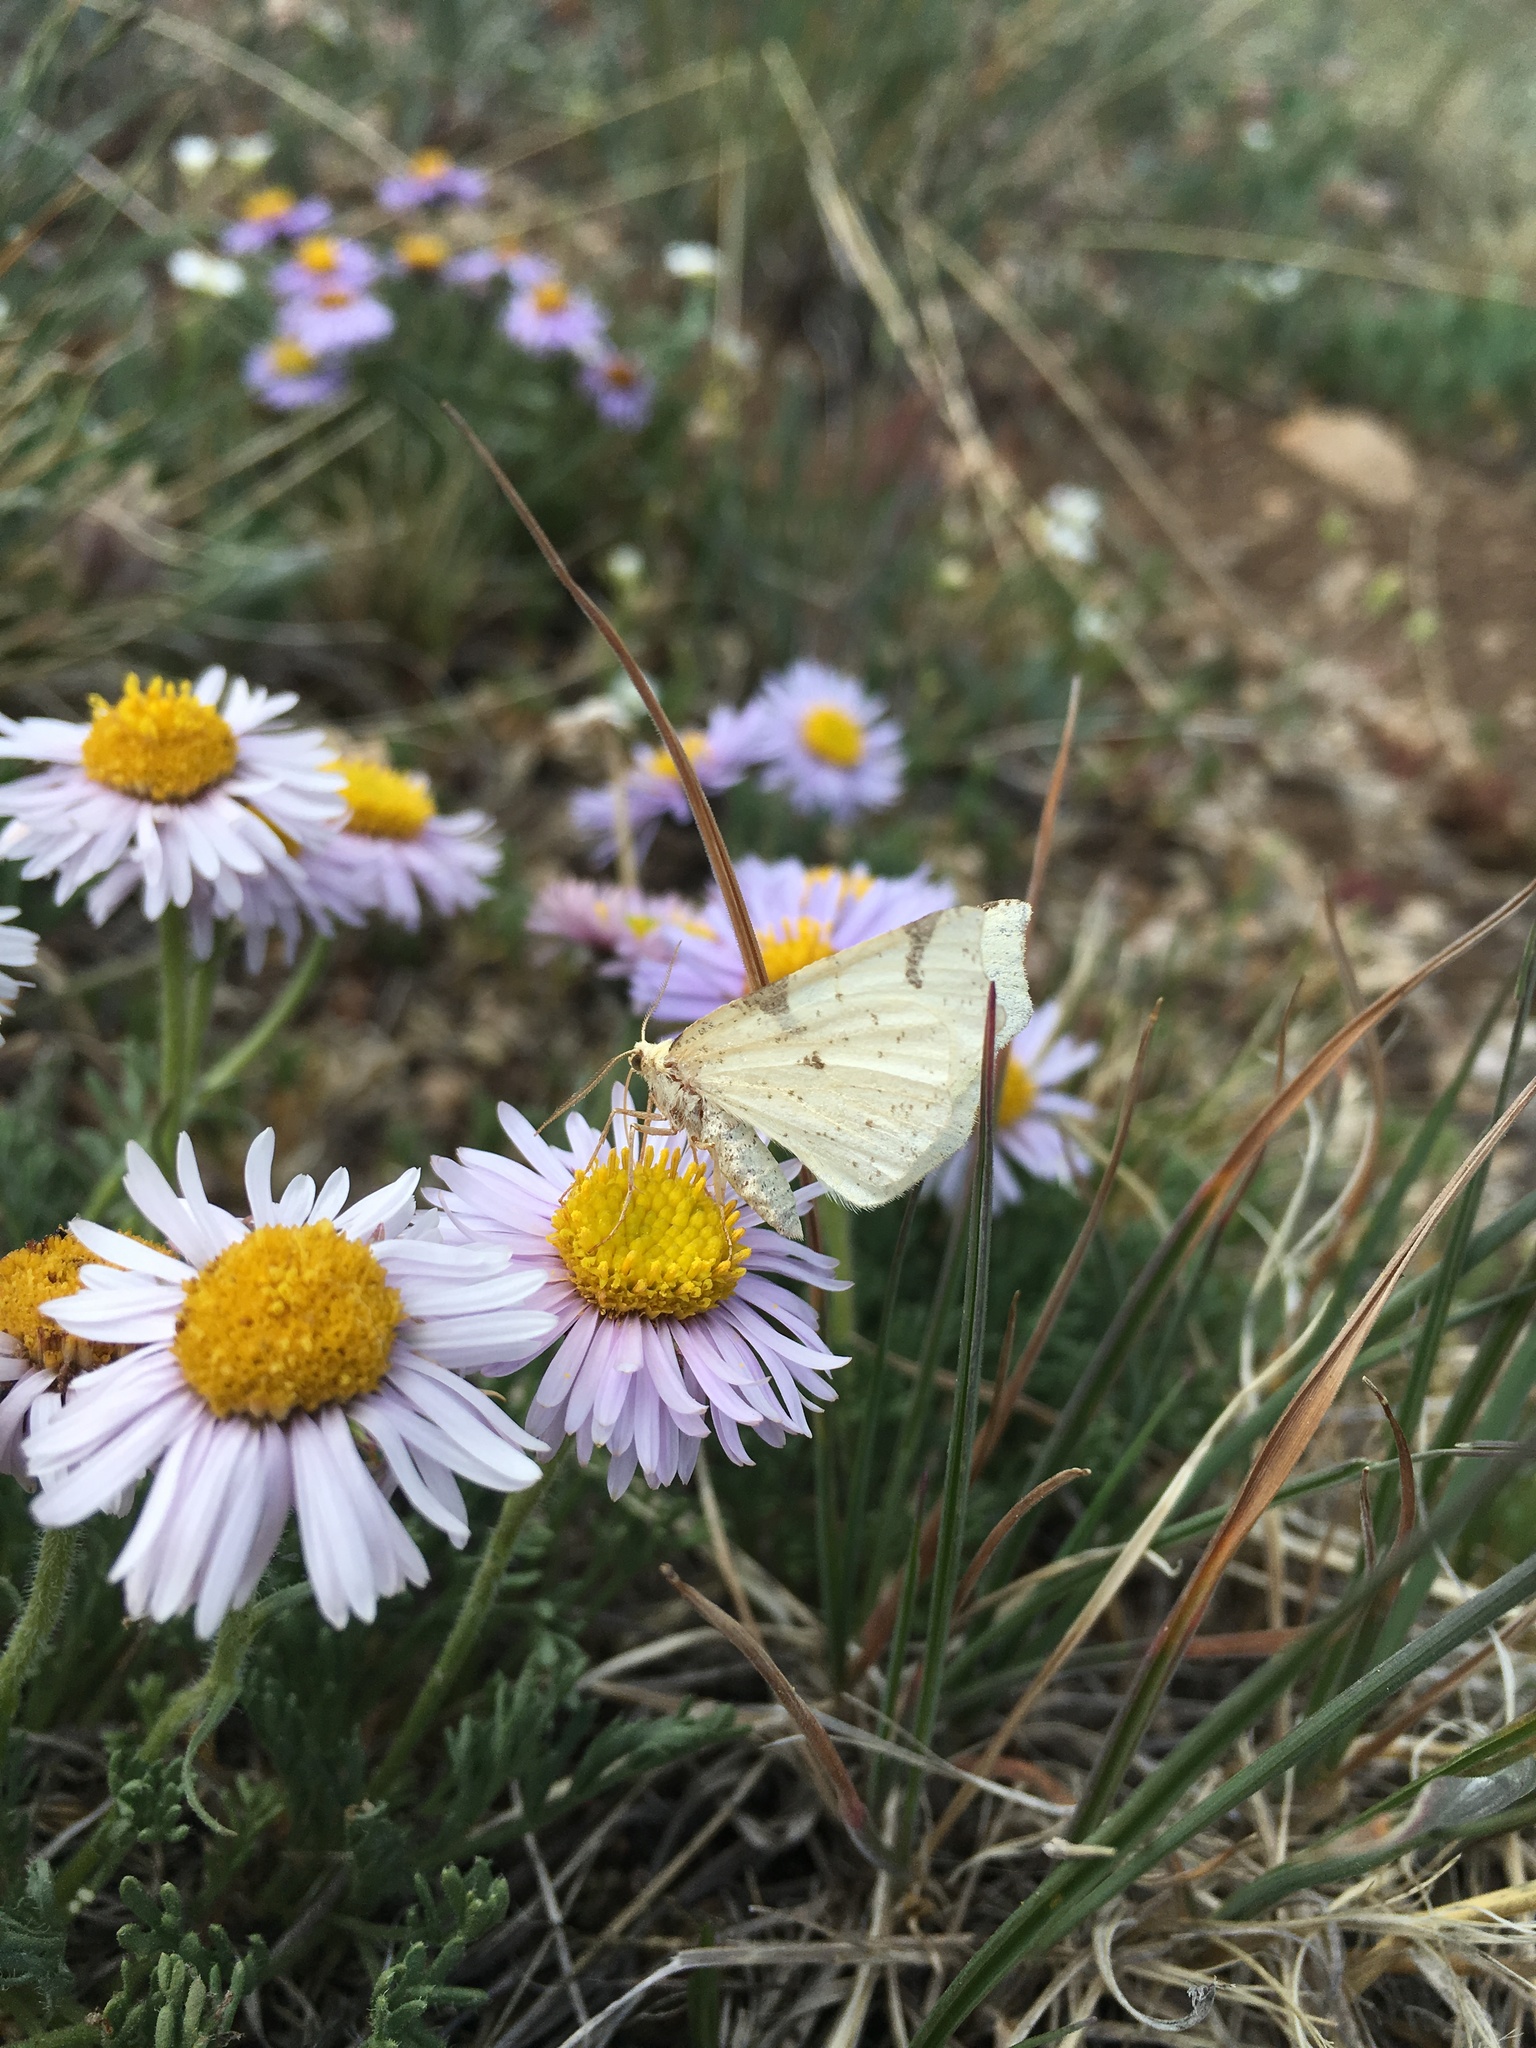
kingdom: Animalia
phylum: Arthropoda
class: Insecta
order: Lepidoptera
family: Geometridae
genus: Neoterpes
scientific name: Neoterpes trianguliferata
